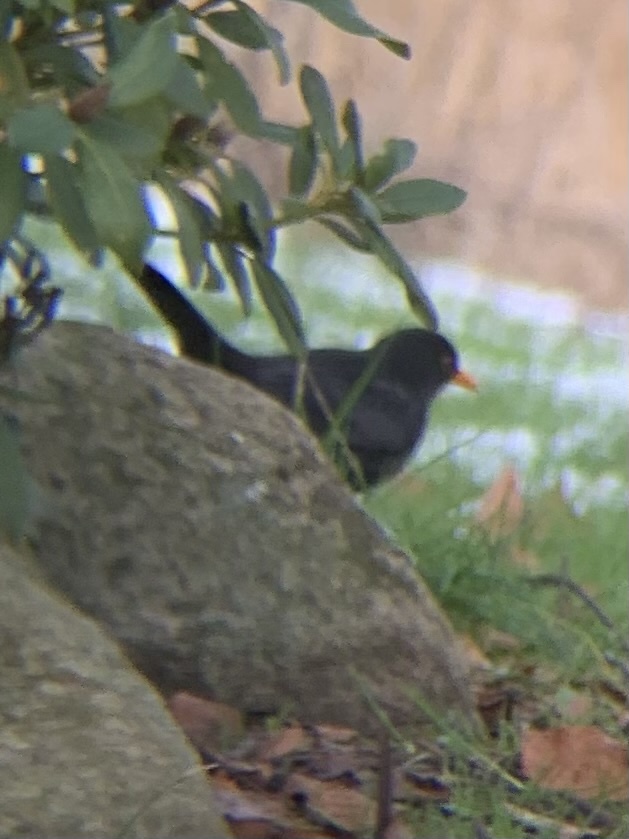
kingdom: Animalia
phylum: Chordata
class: Aves
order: Passeriformes
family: Turdidae
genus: Turdus
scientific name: Turdus merula
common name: Common blackbird
